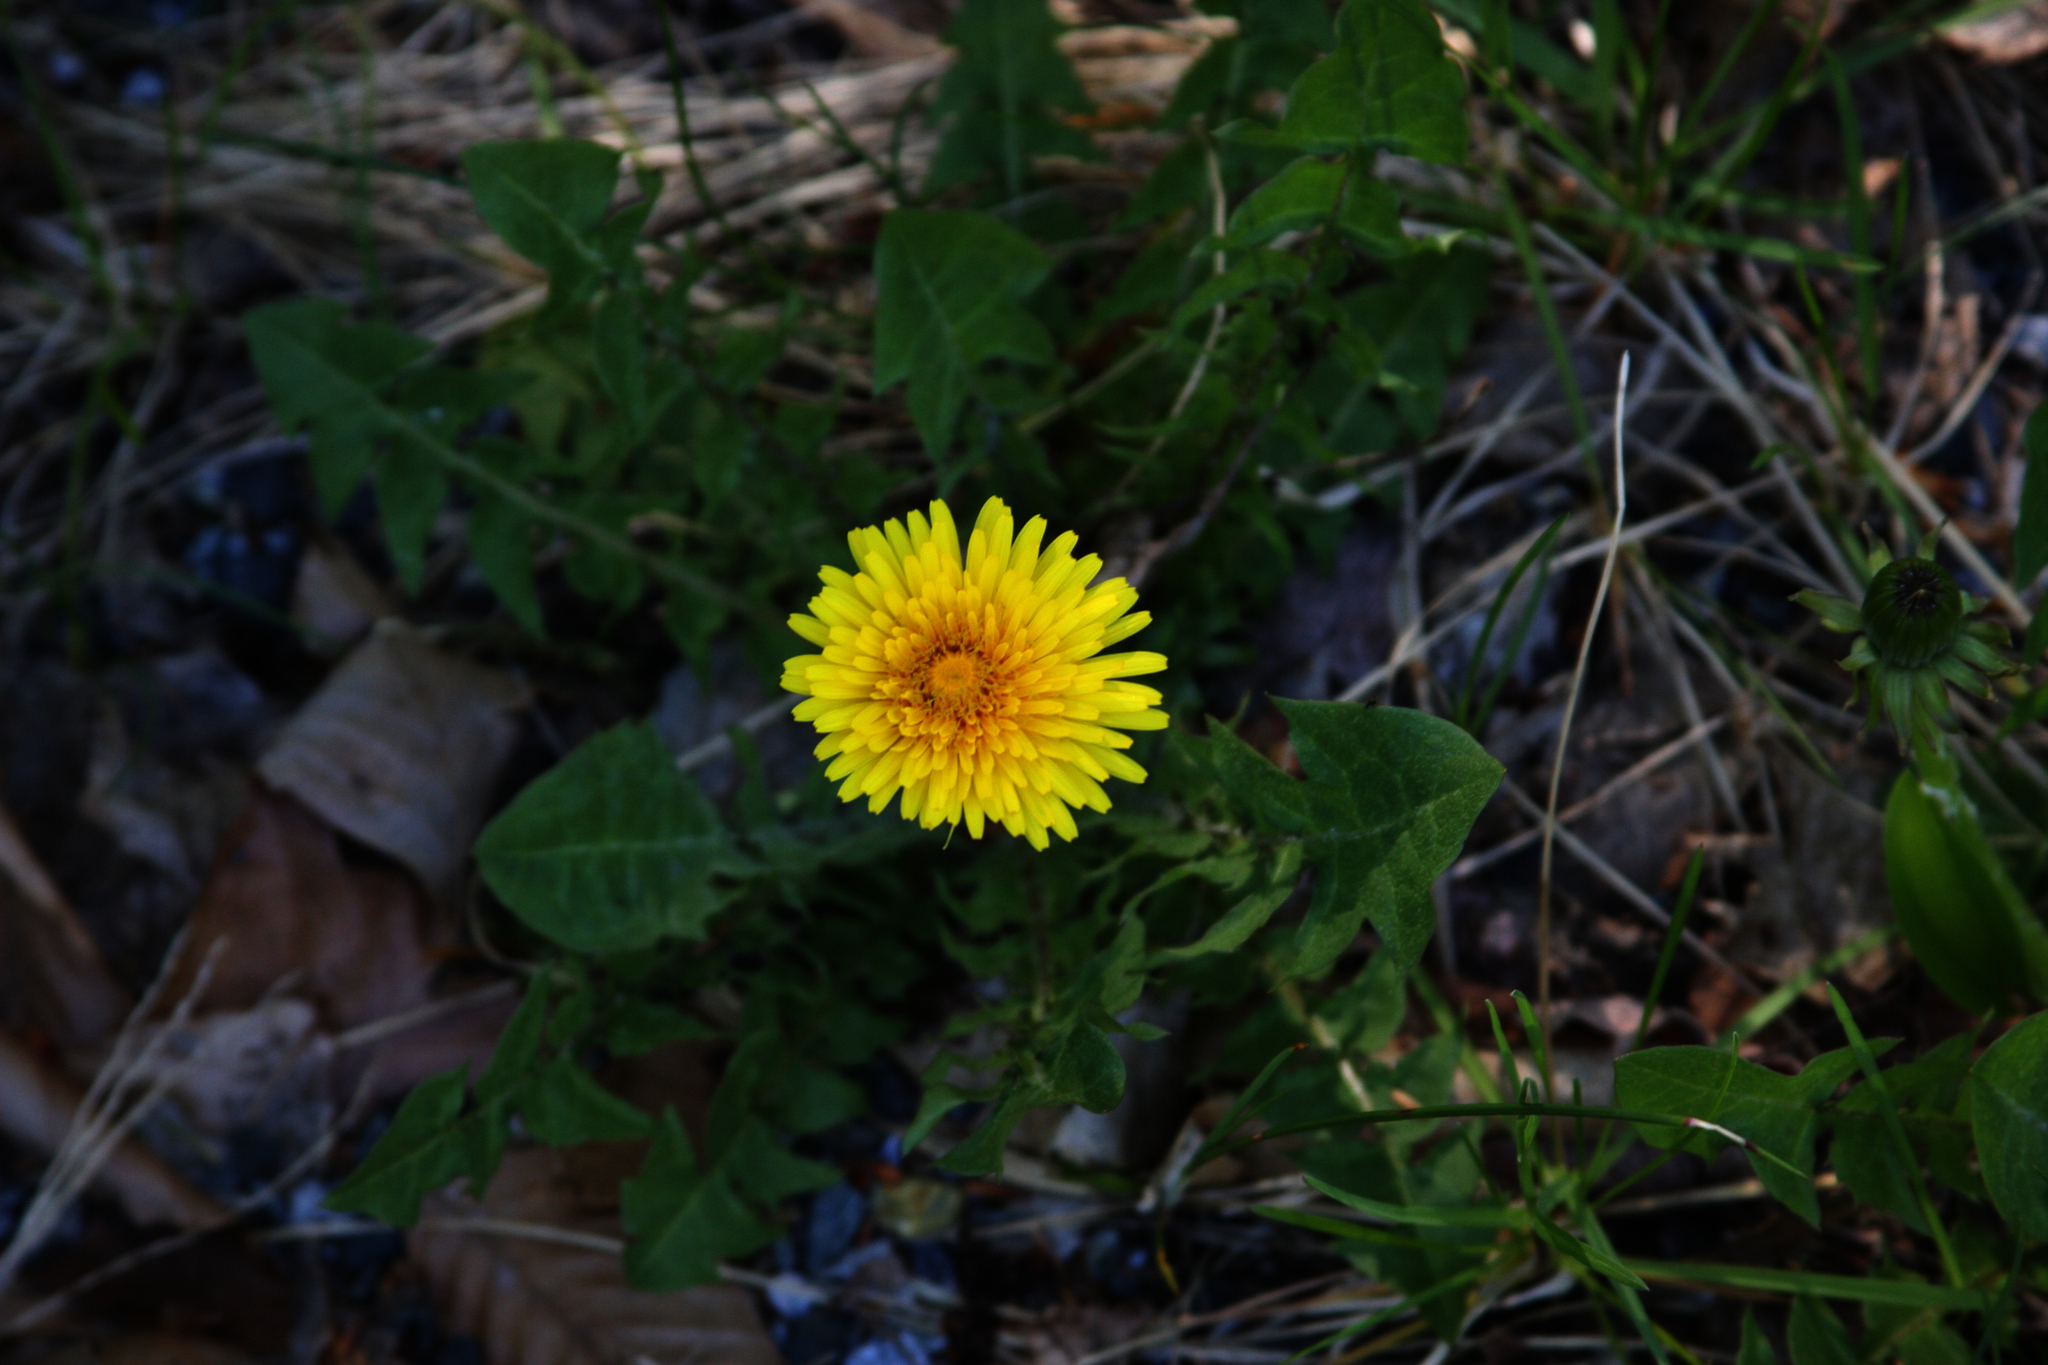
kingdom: Plantae
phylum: Tracheophyta
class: Magnoliopsida
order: Asterales
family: Asteraceae
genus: Taraxacum
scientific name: Taraxacum officinale
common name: Common dandelion
